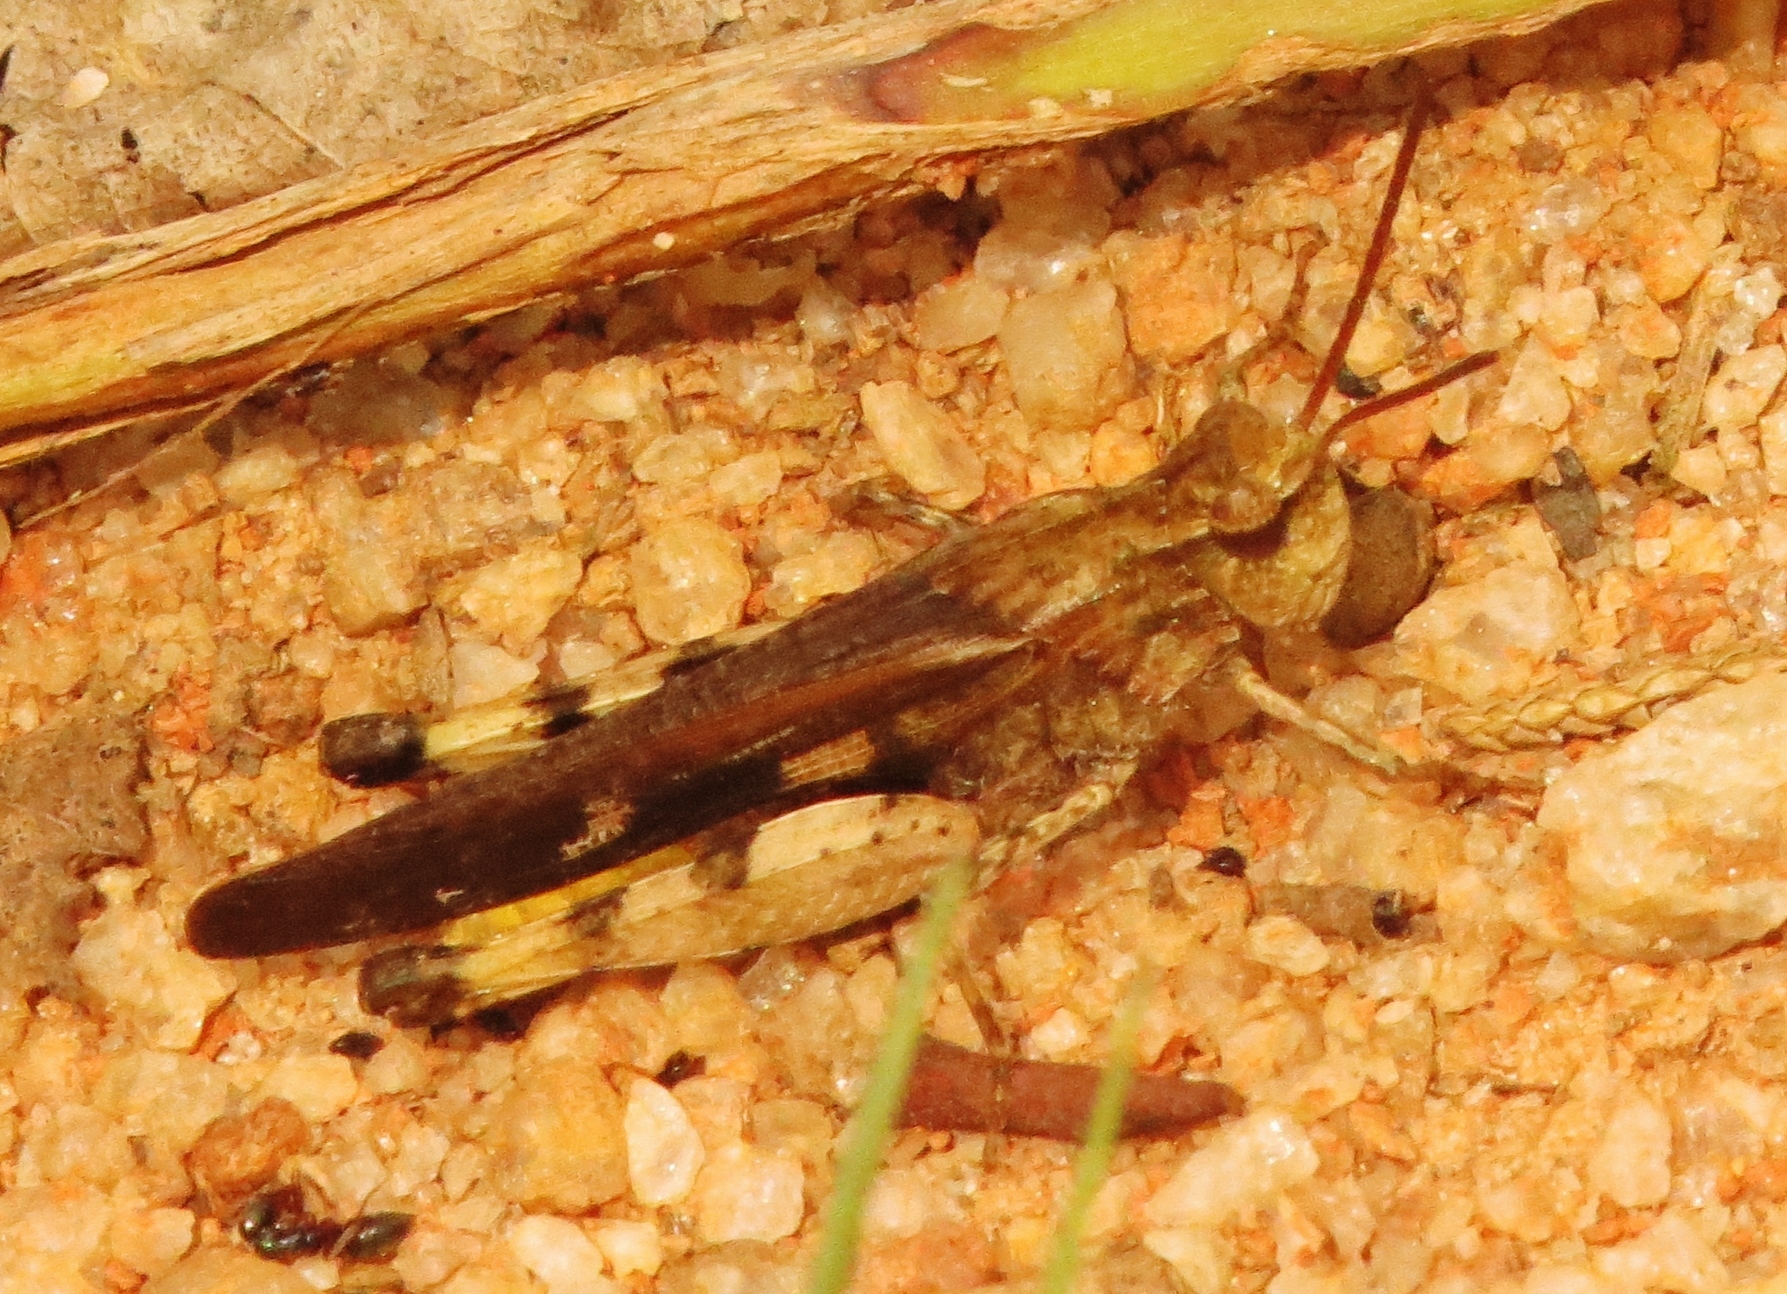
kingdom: Animalia
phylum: Arthropoda
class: Insecta
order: Orthoptera
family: Acrididae
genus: Chortophaga
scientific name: Chortophaga viridifasciata
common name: Green-striped grasshopper
